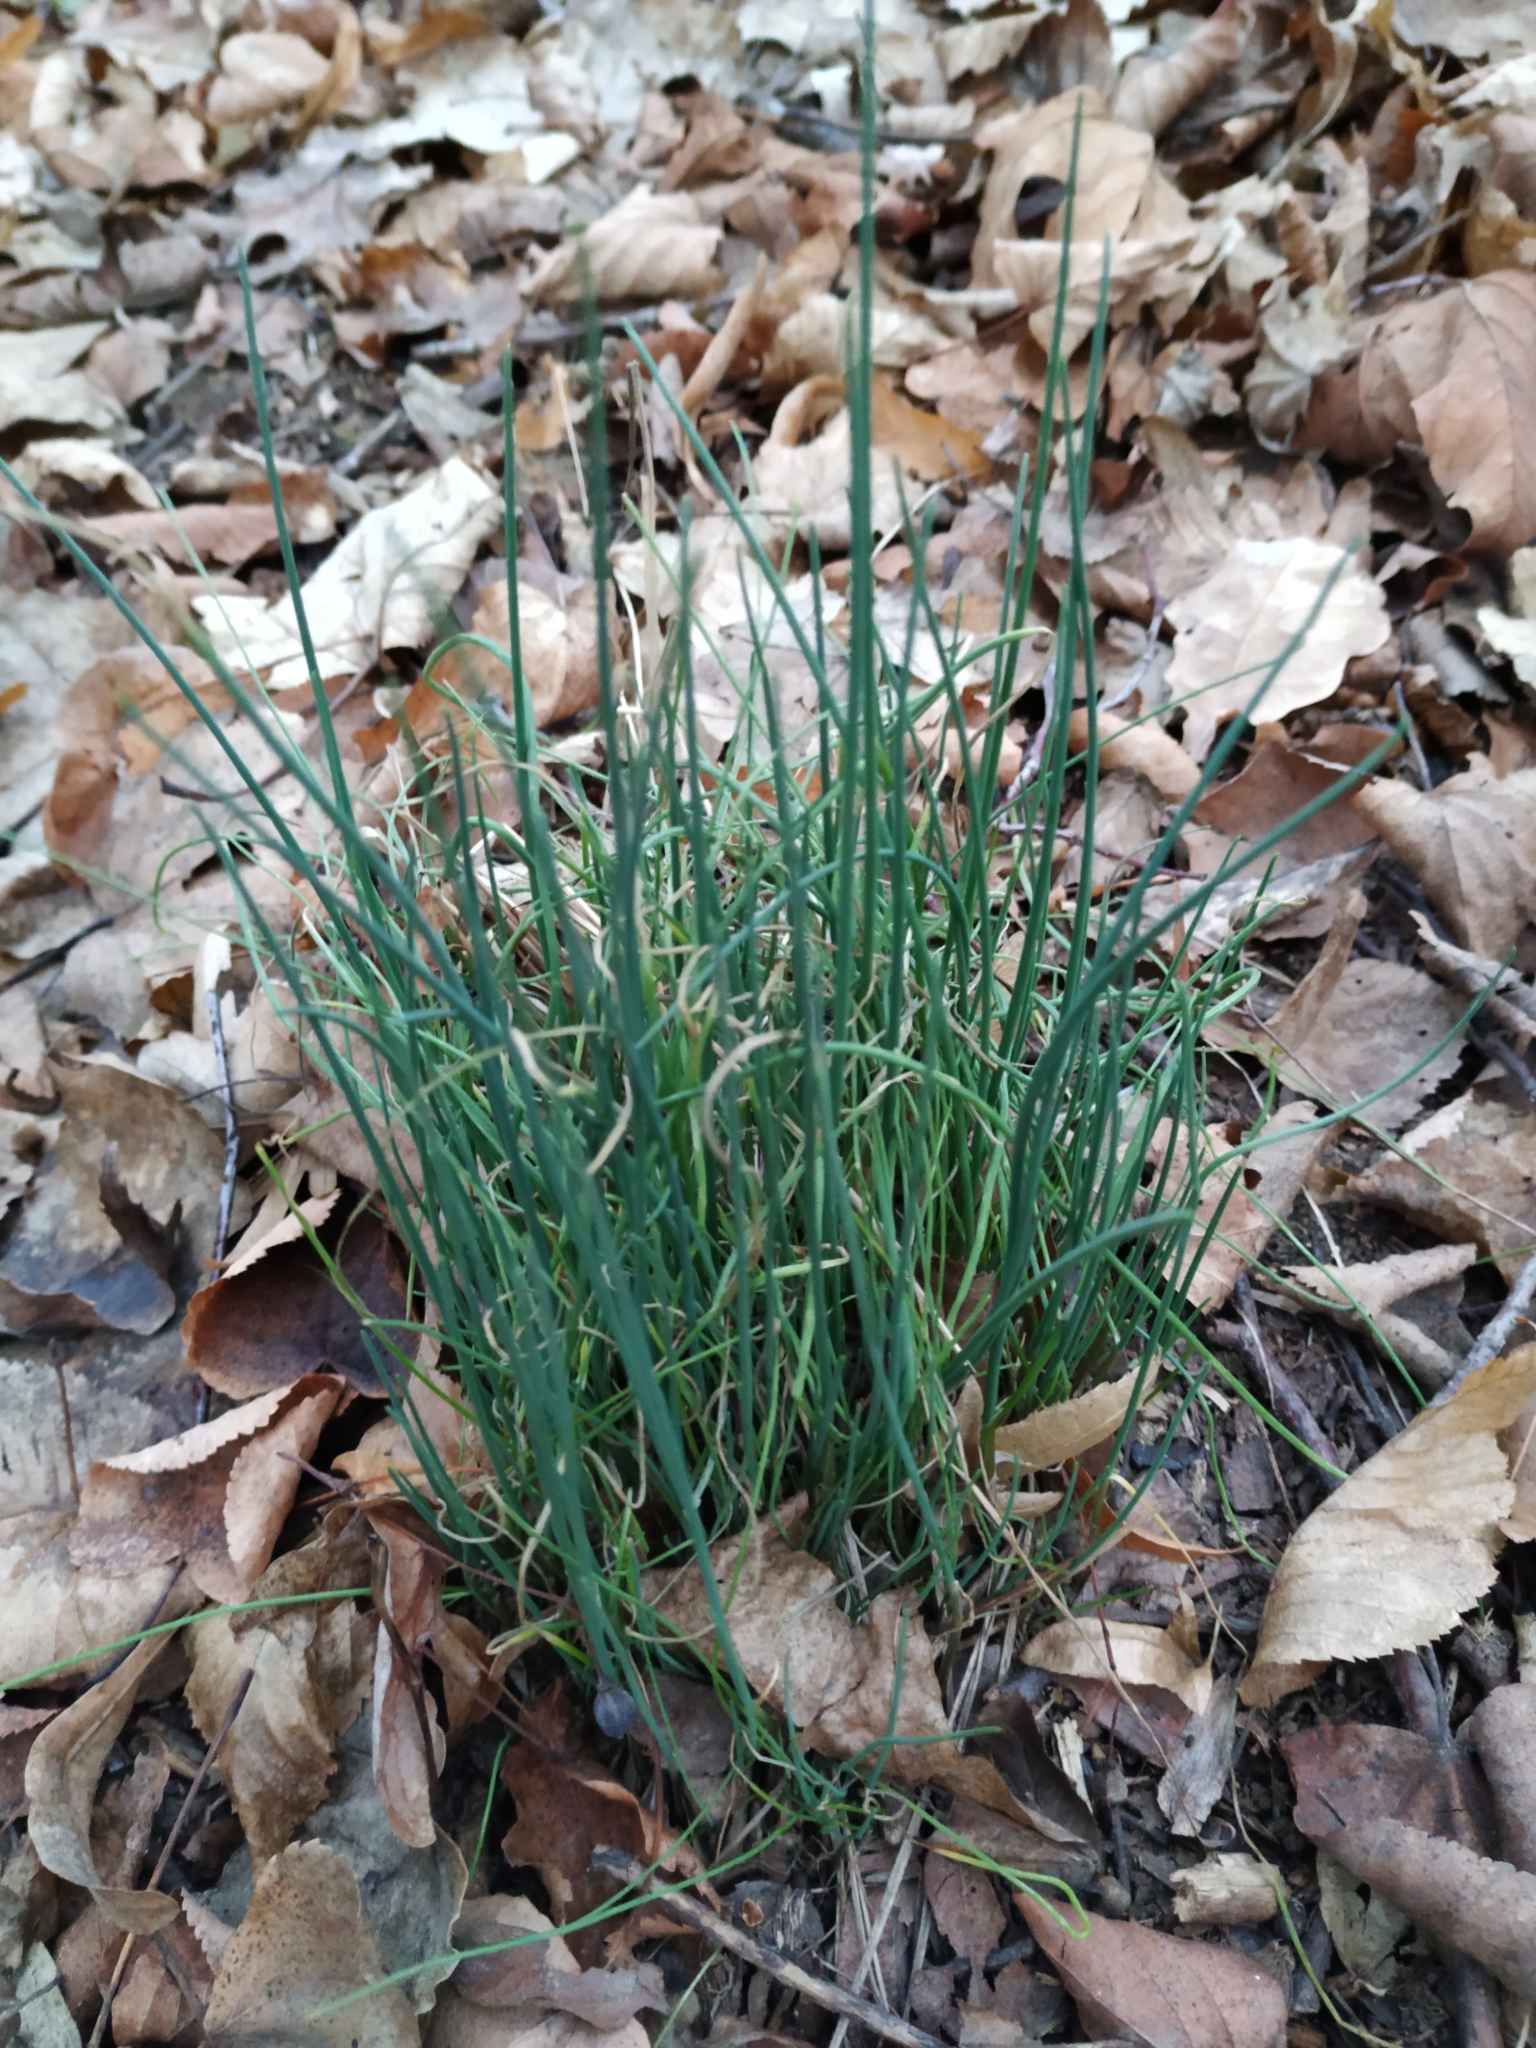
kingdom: Plantae
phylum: Tracheophyta
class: Liliopsida
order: Asparagales
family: Amaryllidaceae
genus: Allium
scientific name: Allium vineale
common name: Crow garlic
